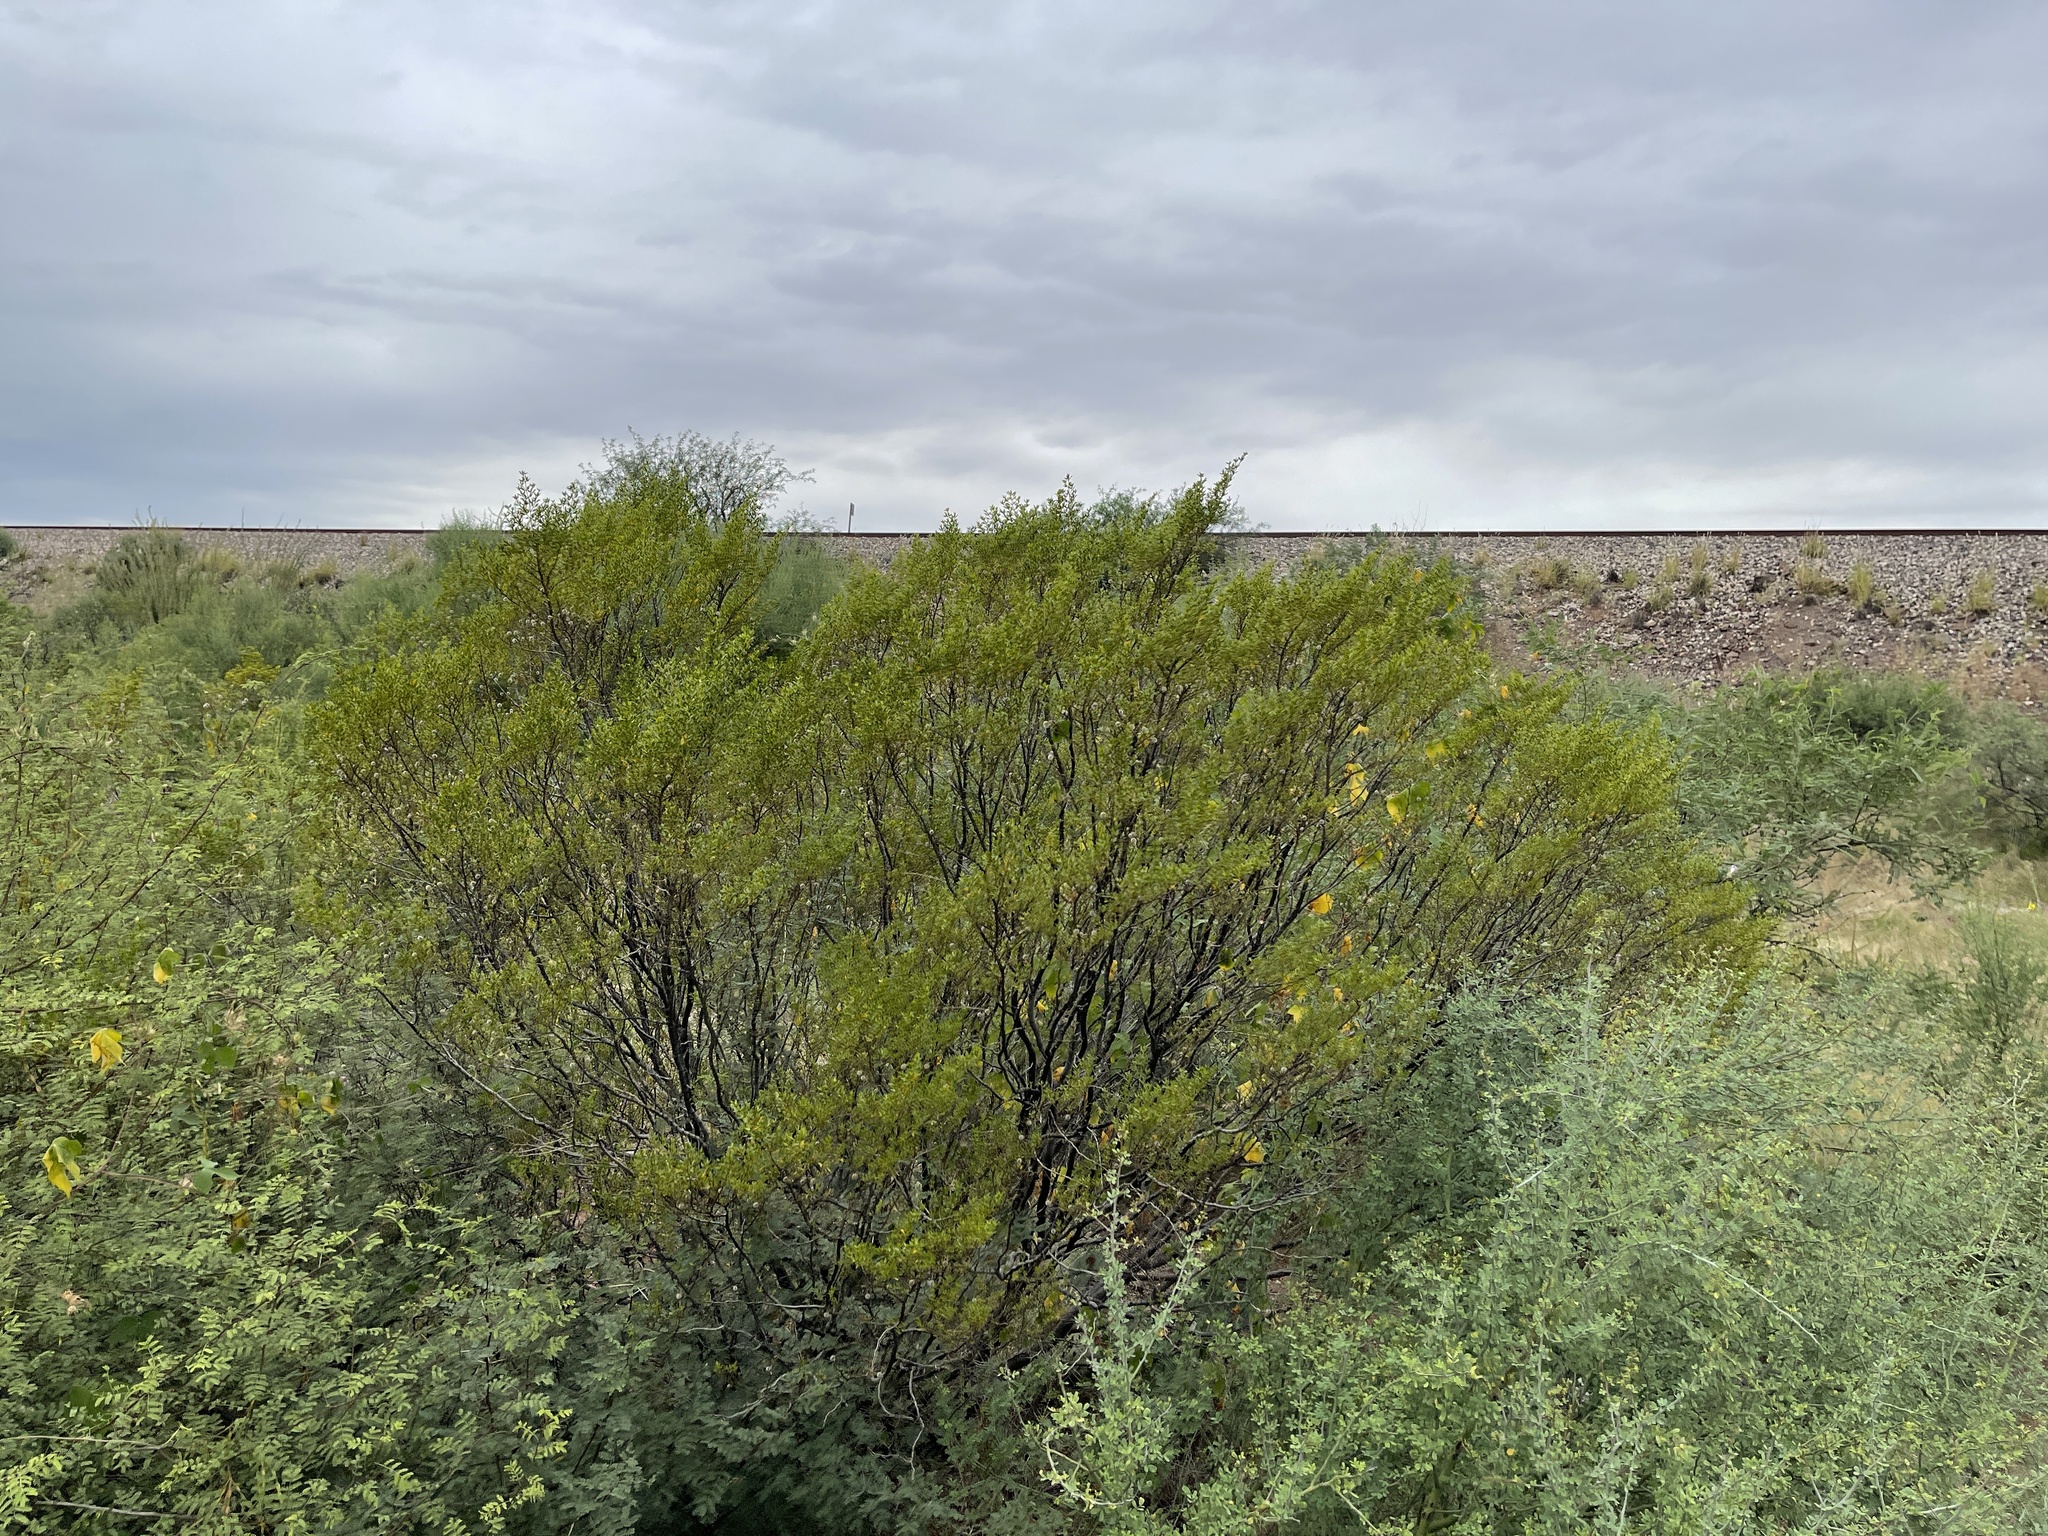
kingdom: Plantae
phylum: Tracheophyta
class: Magnoliopsida
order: Zygophyllales
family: Zygophyllaceae
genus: Larrea
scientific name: Larrea tridentata
